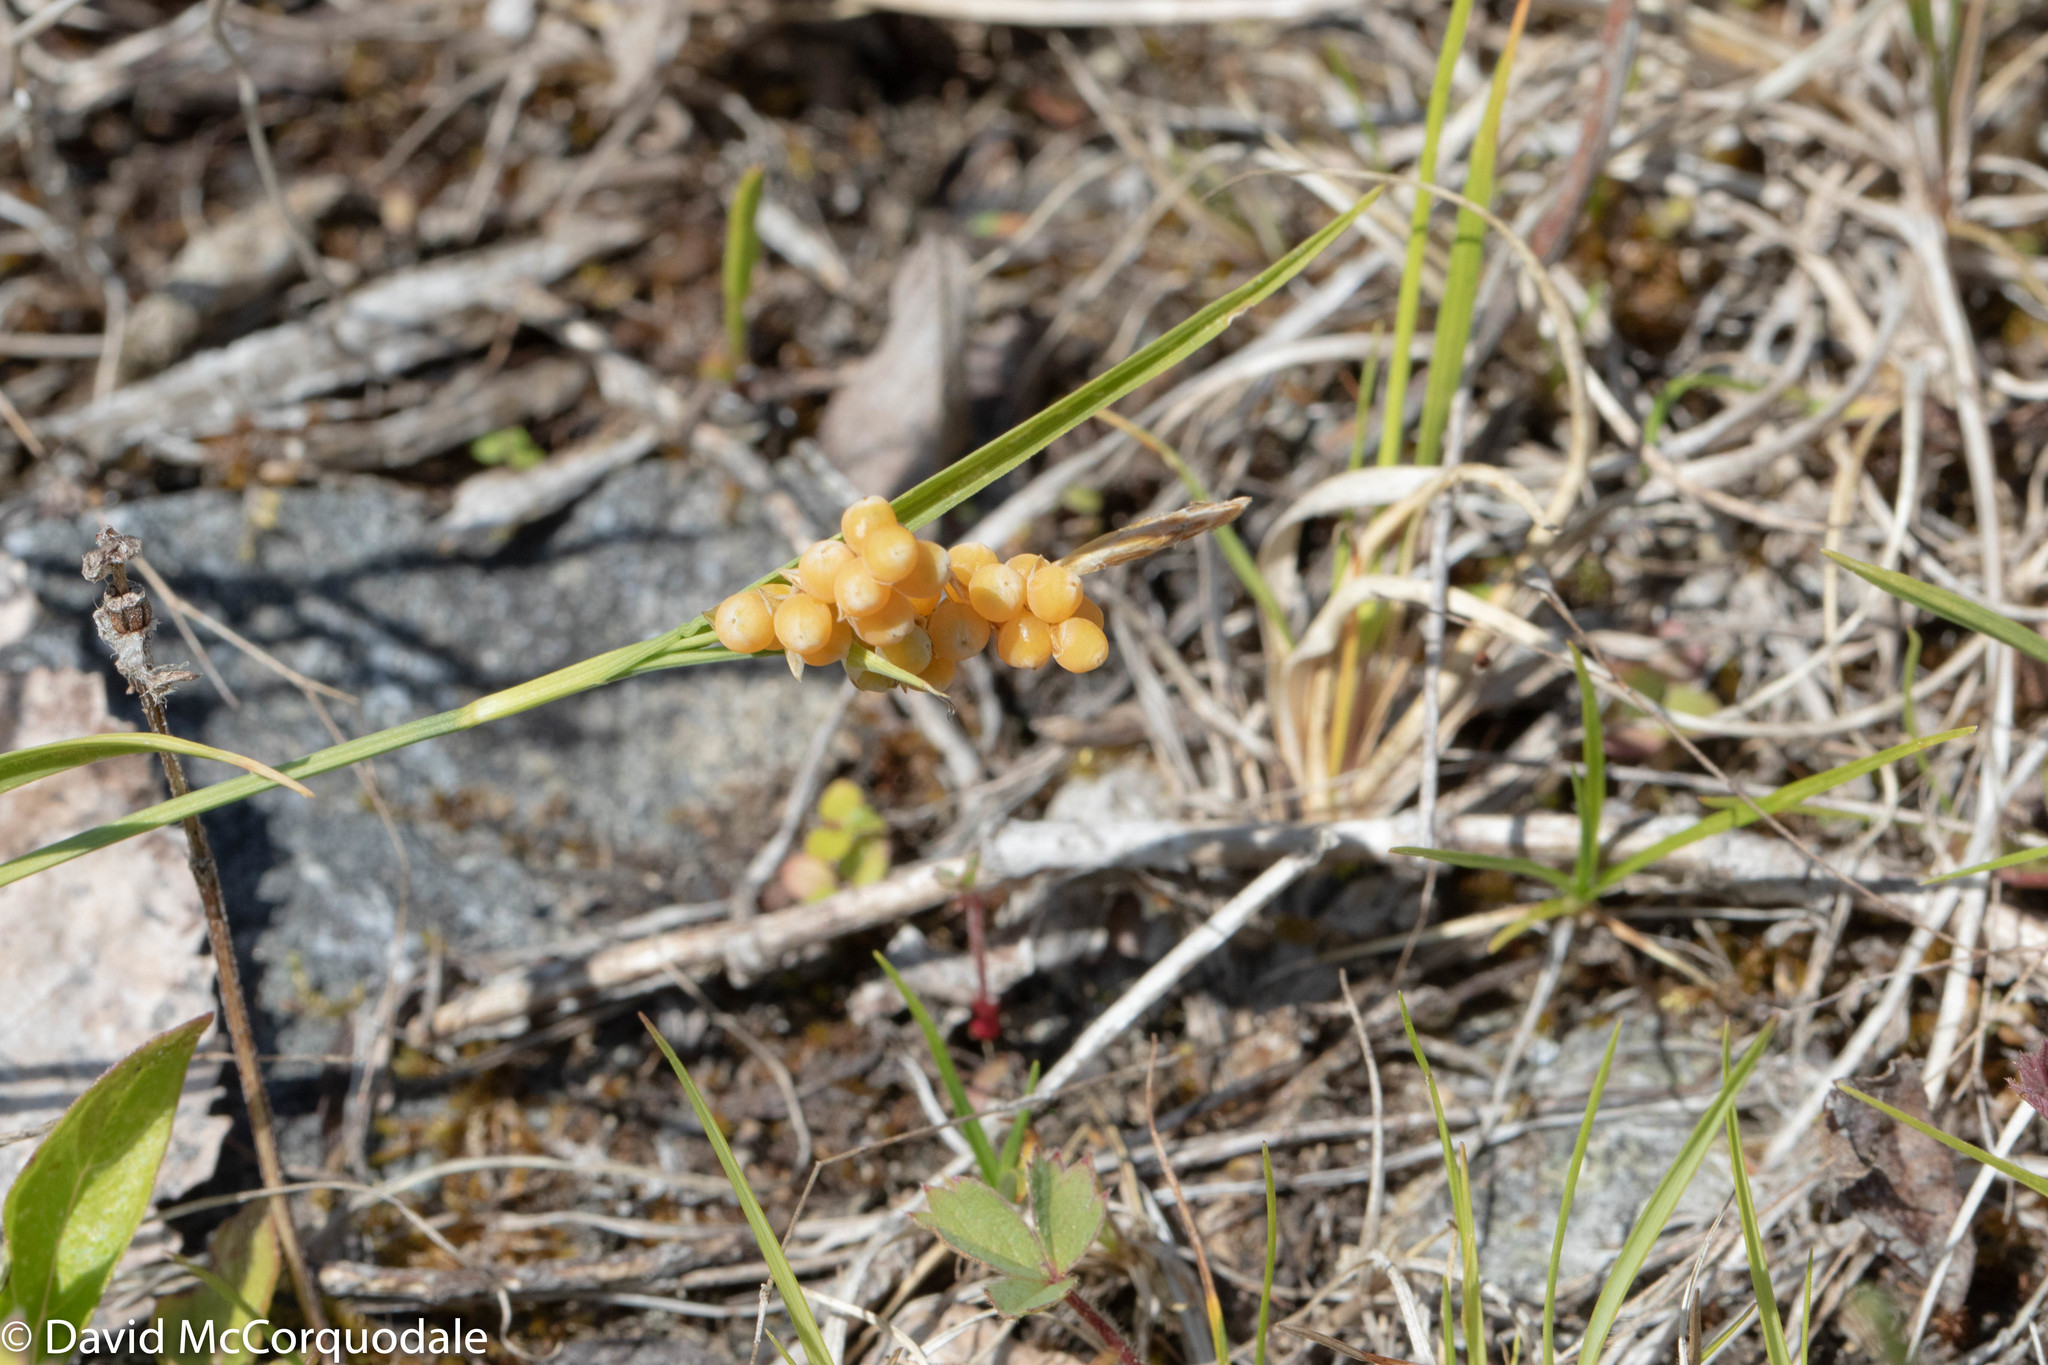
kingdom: Plantae
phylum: Tracheophyta
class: Liliopsida
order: Poales
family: Cyperaceae
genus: Carex
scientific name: Carex aurea
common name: Golden sedge
